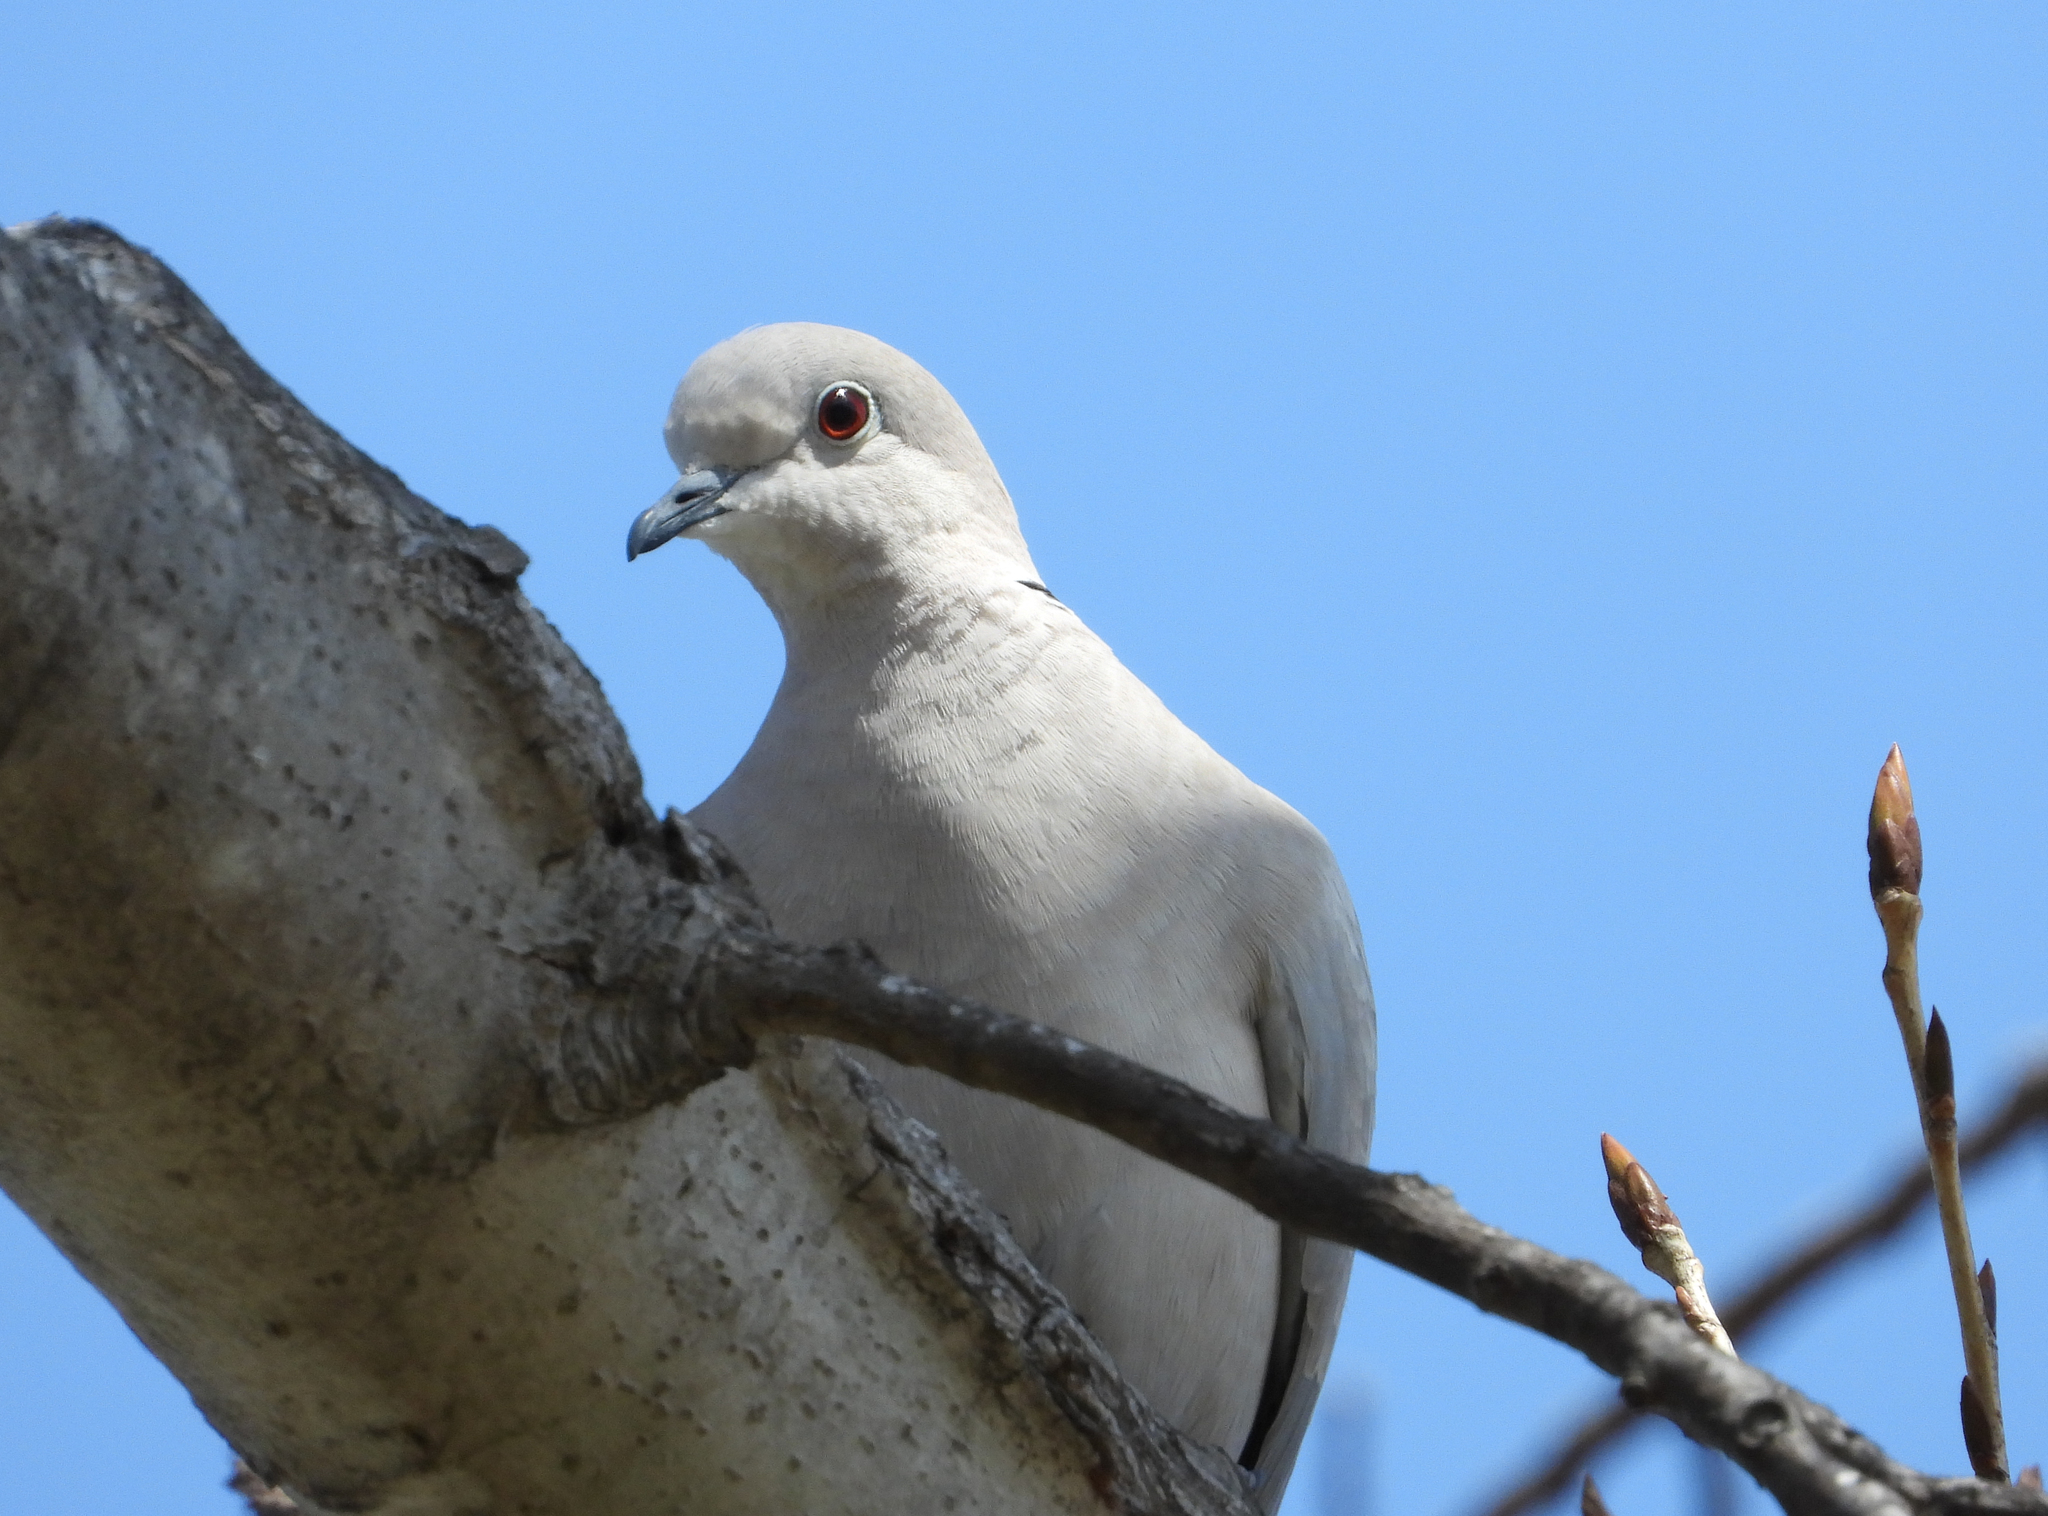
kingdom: Animalia
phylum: Chordata
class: Aves
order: Columbiformes
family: Columbidae
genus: Streptopelia
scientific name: Streptopelia decaocto
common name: Eurasian collared dove
